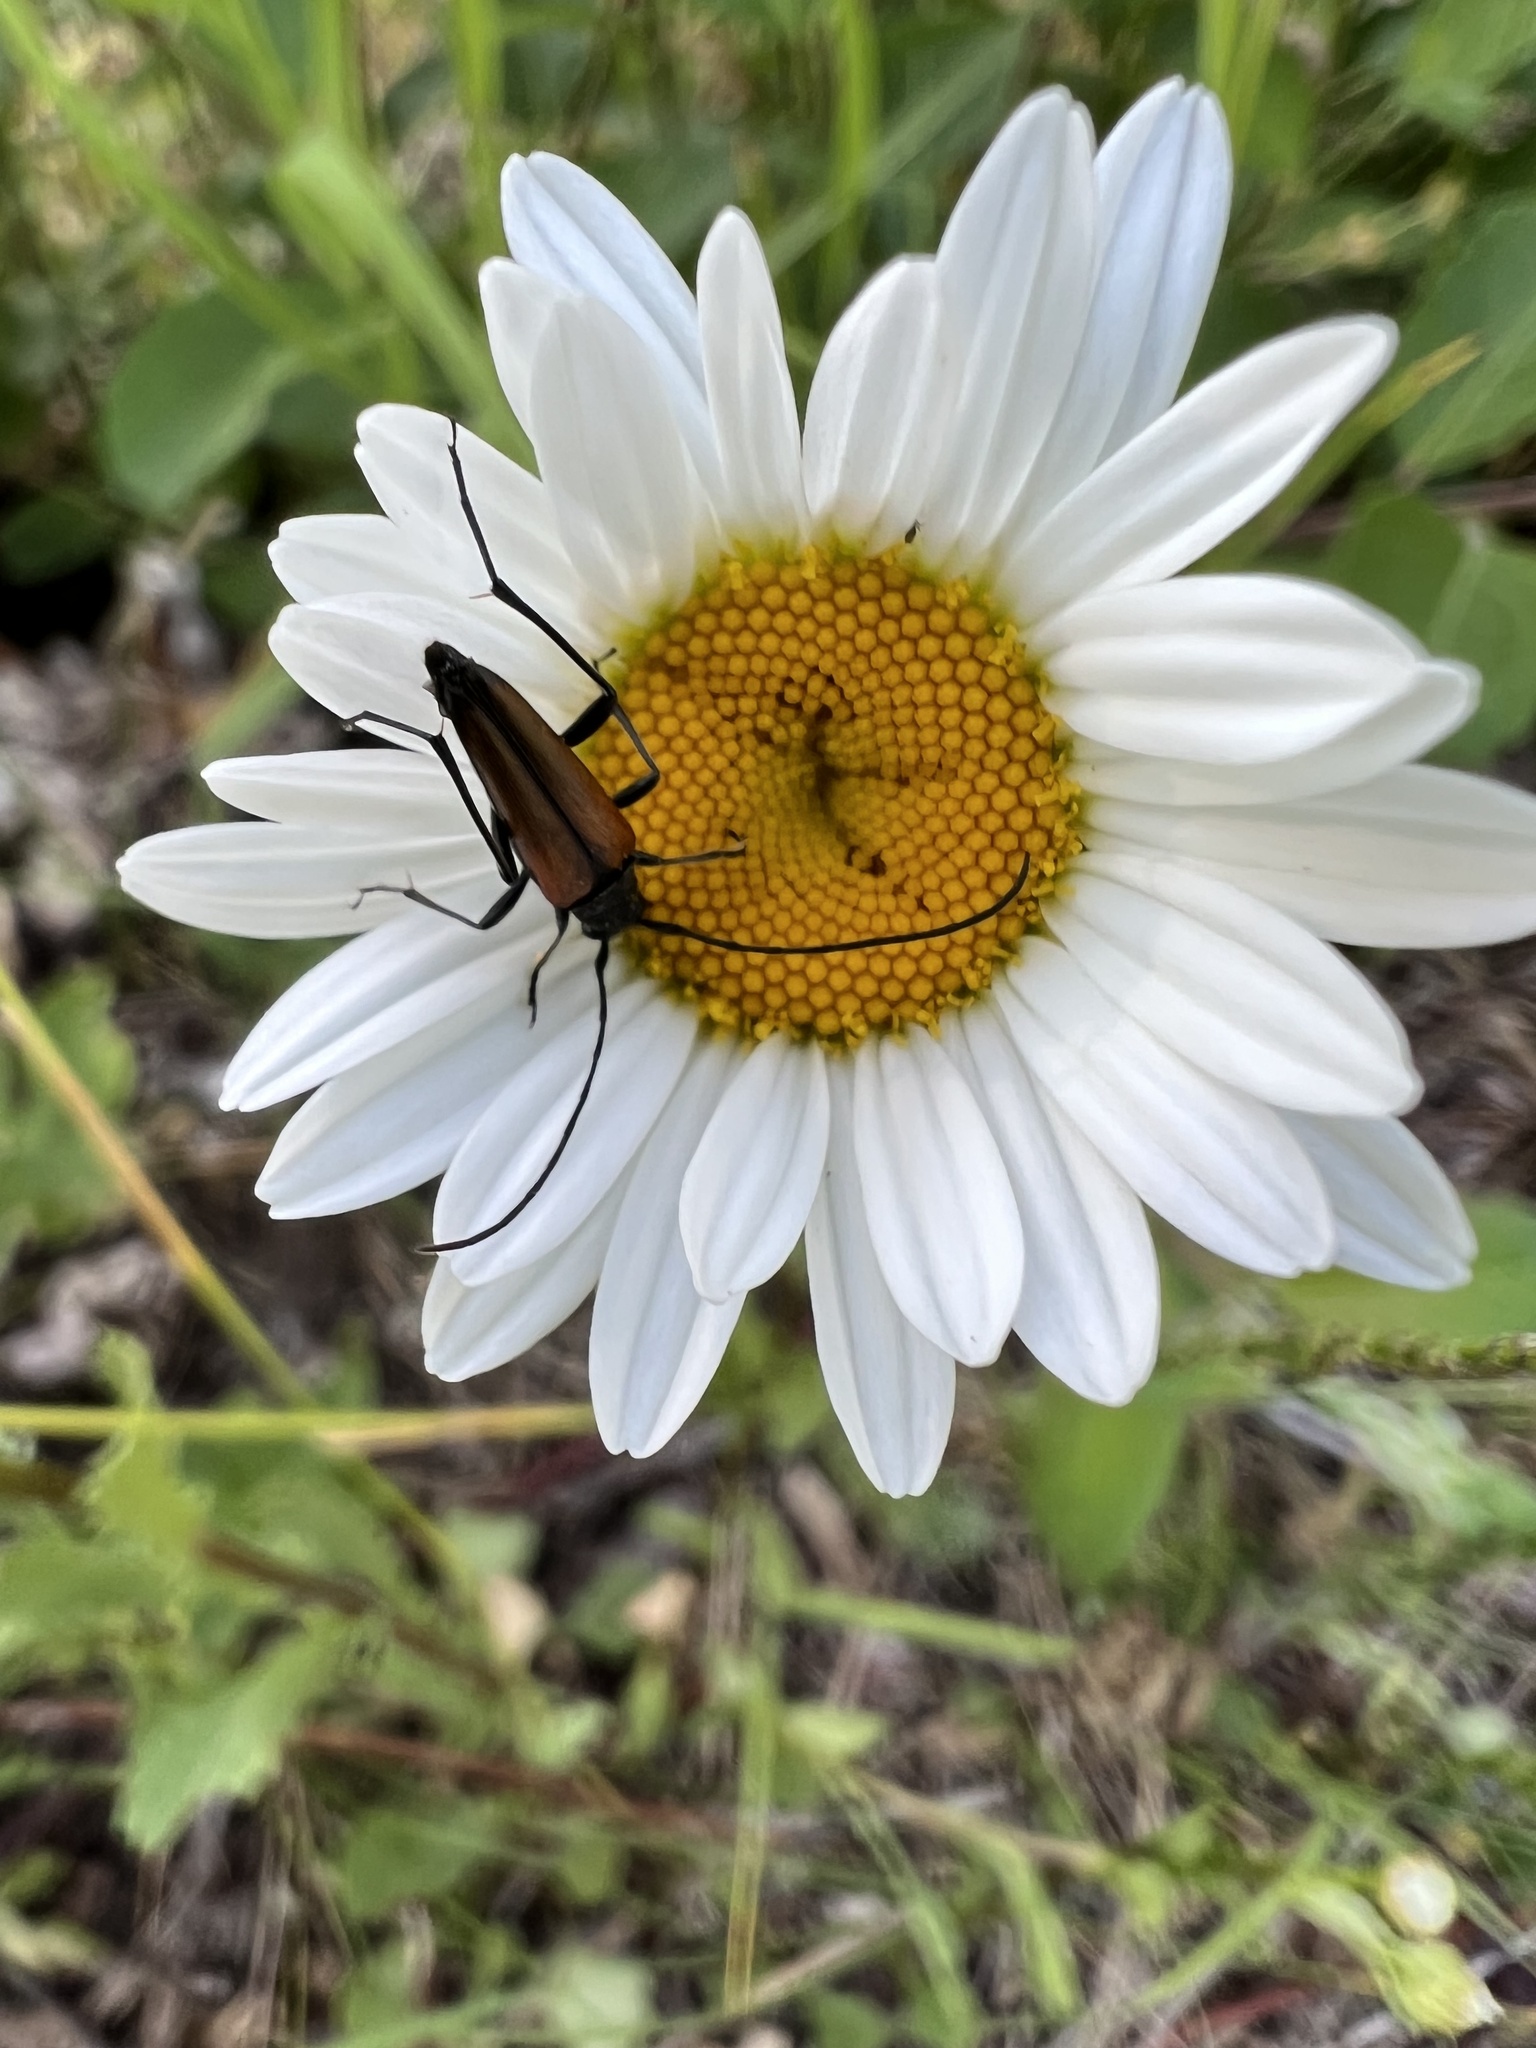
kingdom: Animalia
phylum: Arthropoda
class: Insecta
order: Coleoptera
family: Cerambycidae
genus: Stenurella
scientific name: Stenurella melanura
